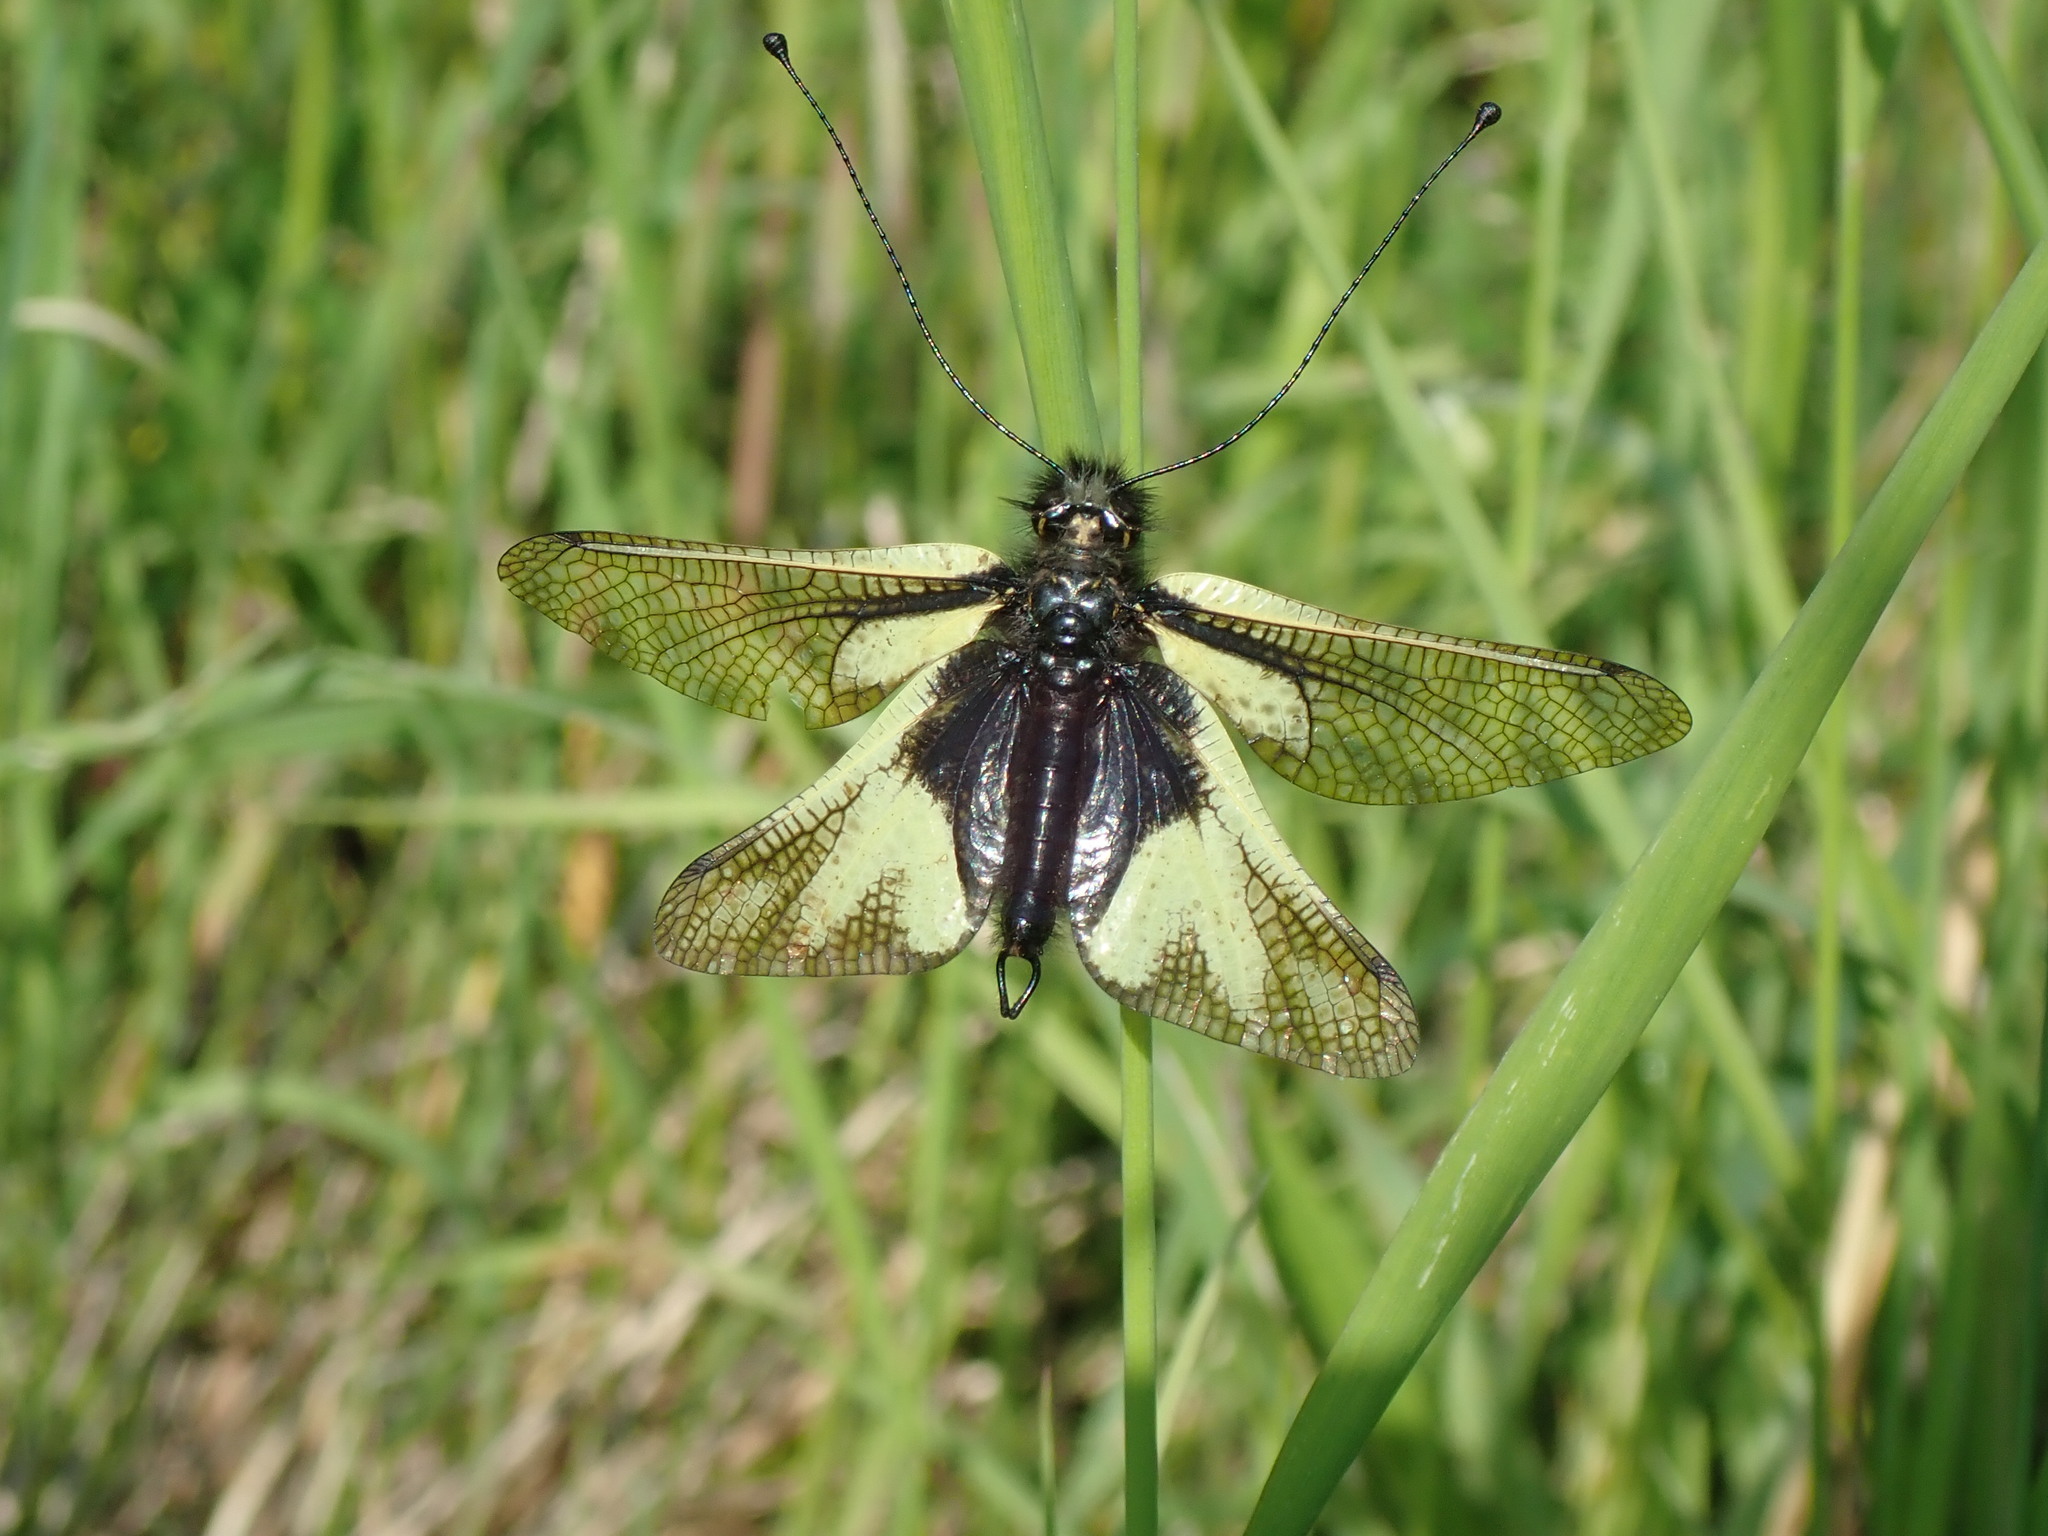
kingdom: Animalia
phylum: Arthropoda
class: Insecta
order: Neuroptera
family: Ascalaphidae
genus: Libelloides
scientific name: Libelloides coccajus
